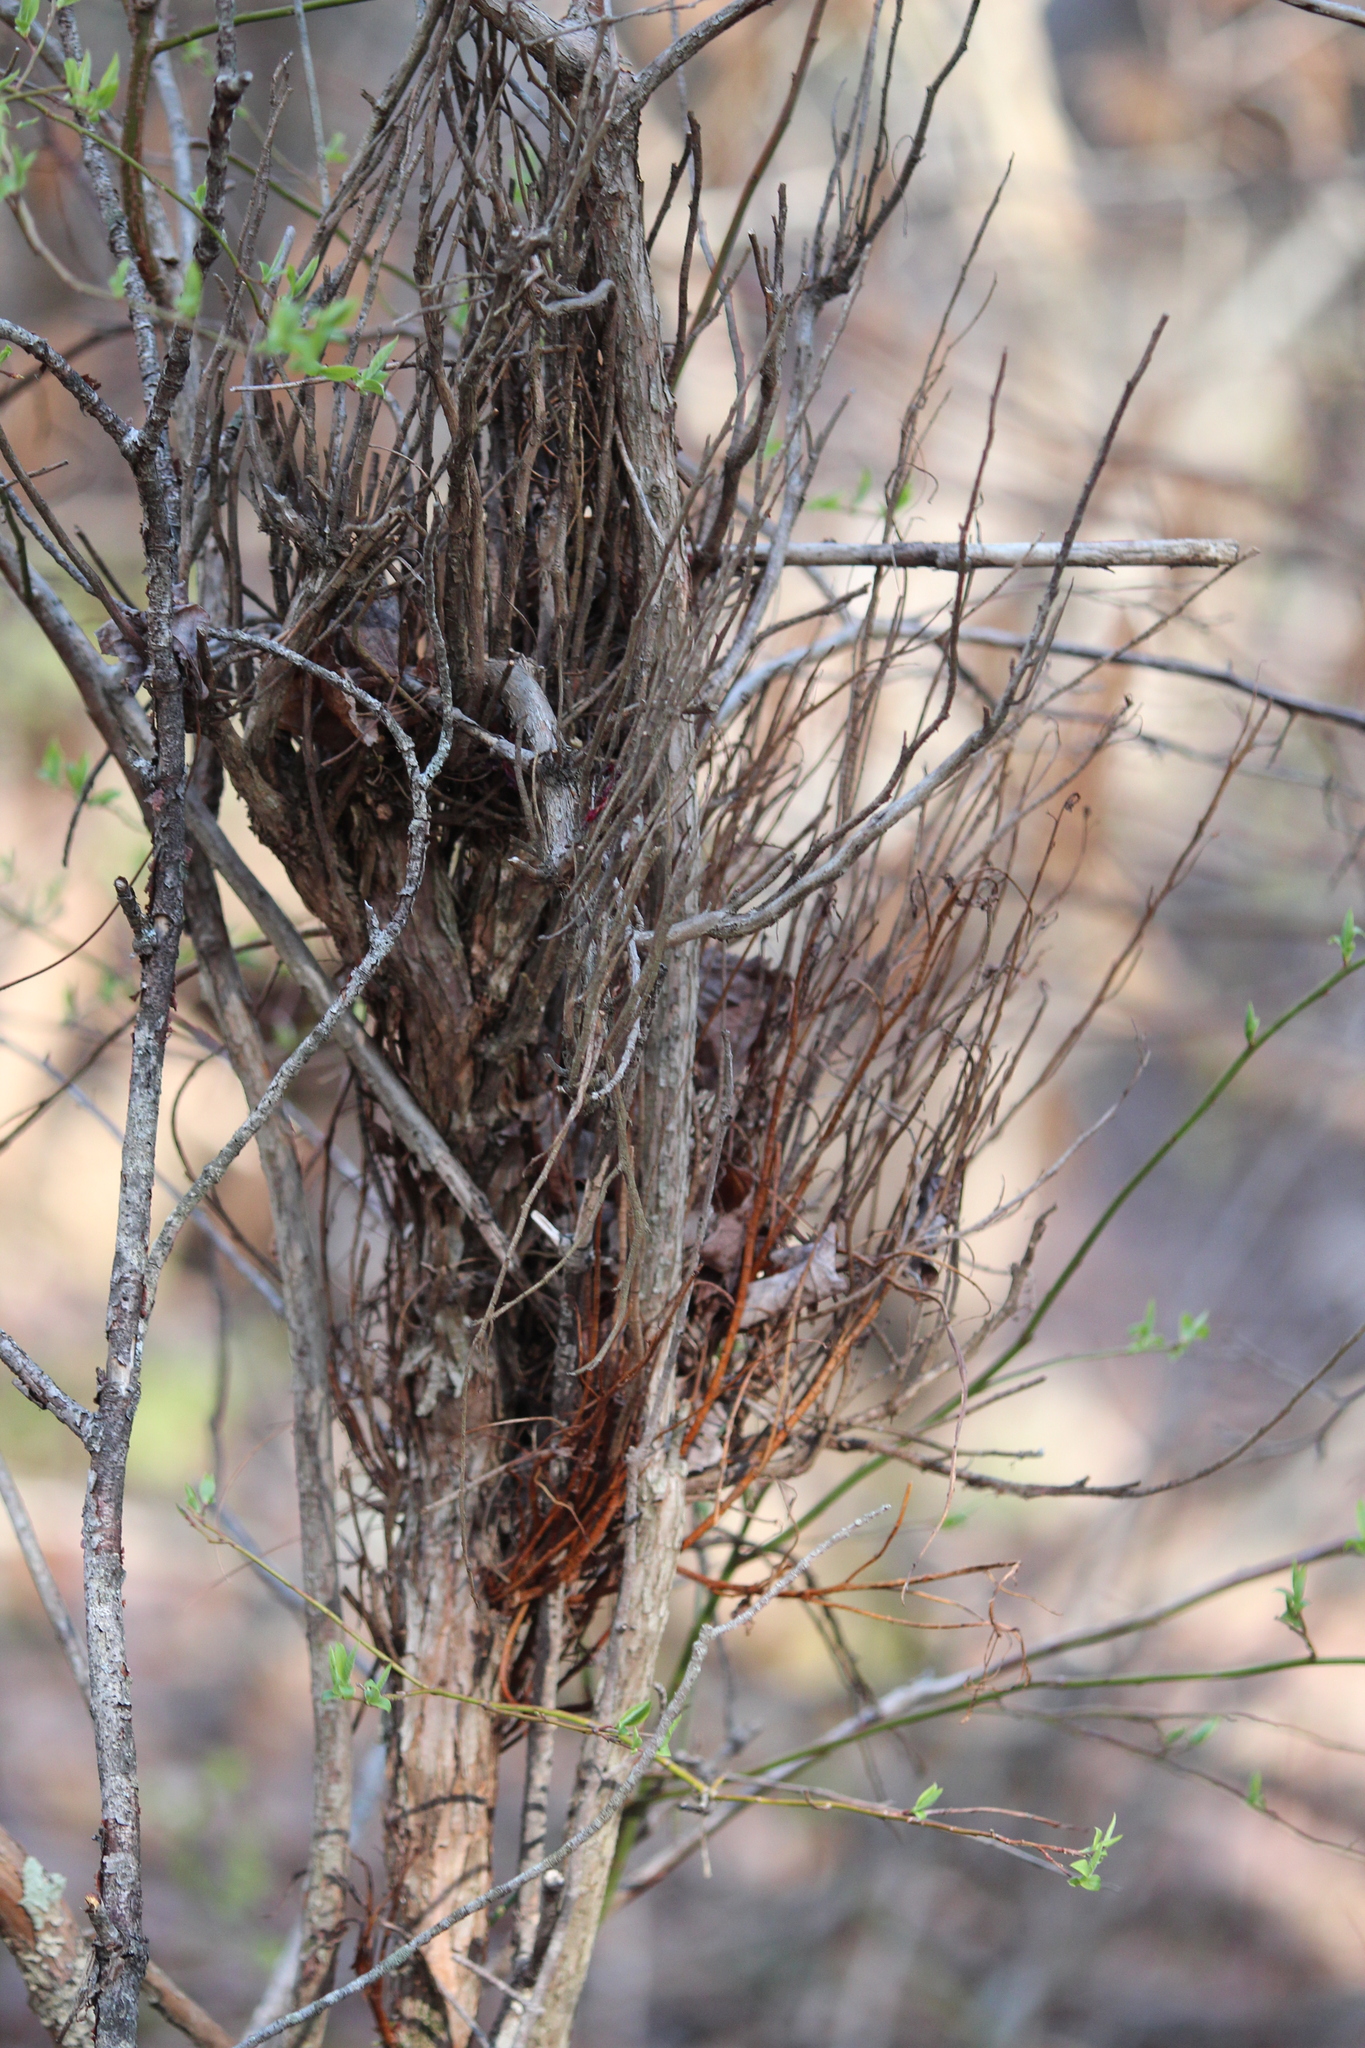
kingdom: Fungi
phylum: Basidiomycota
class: Pucciniomycetes
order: Pucciniales
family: Pucciniastraceae
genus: Calyptospora
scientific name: Calyptospora columnaris
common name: Huckleberry broom rust fungus
